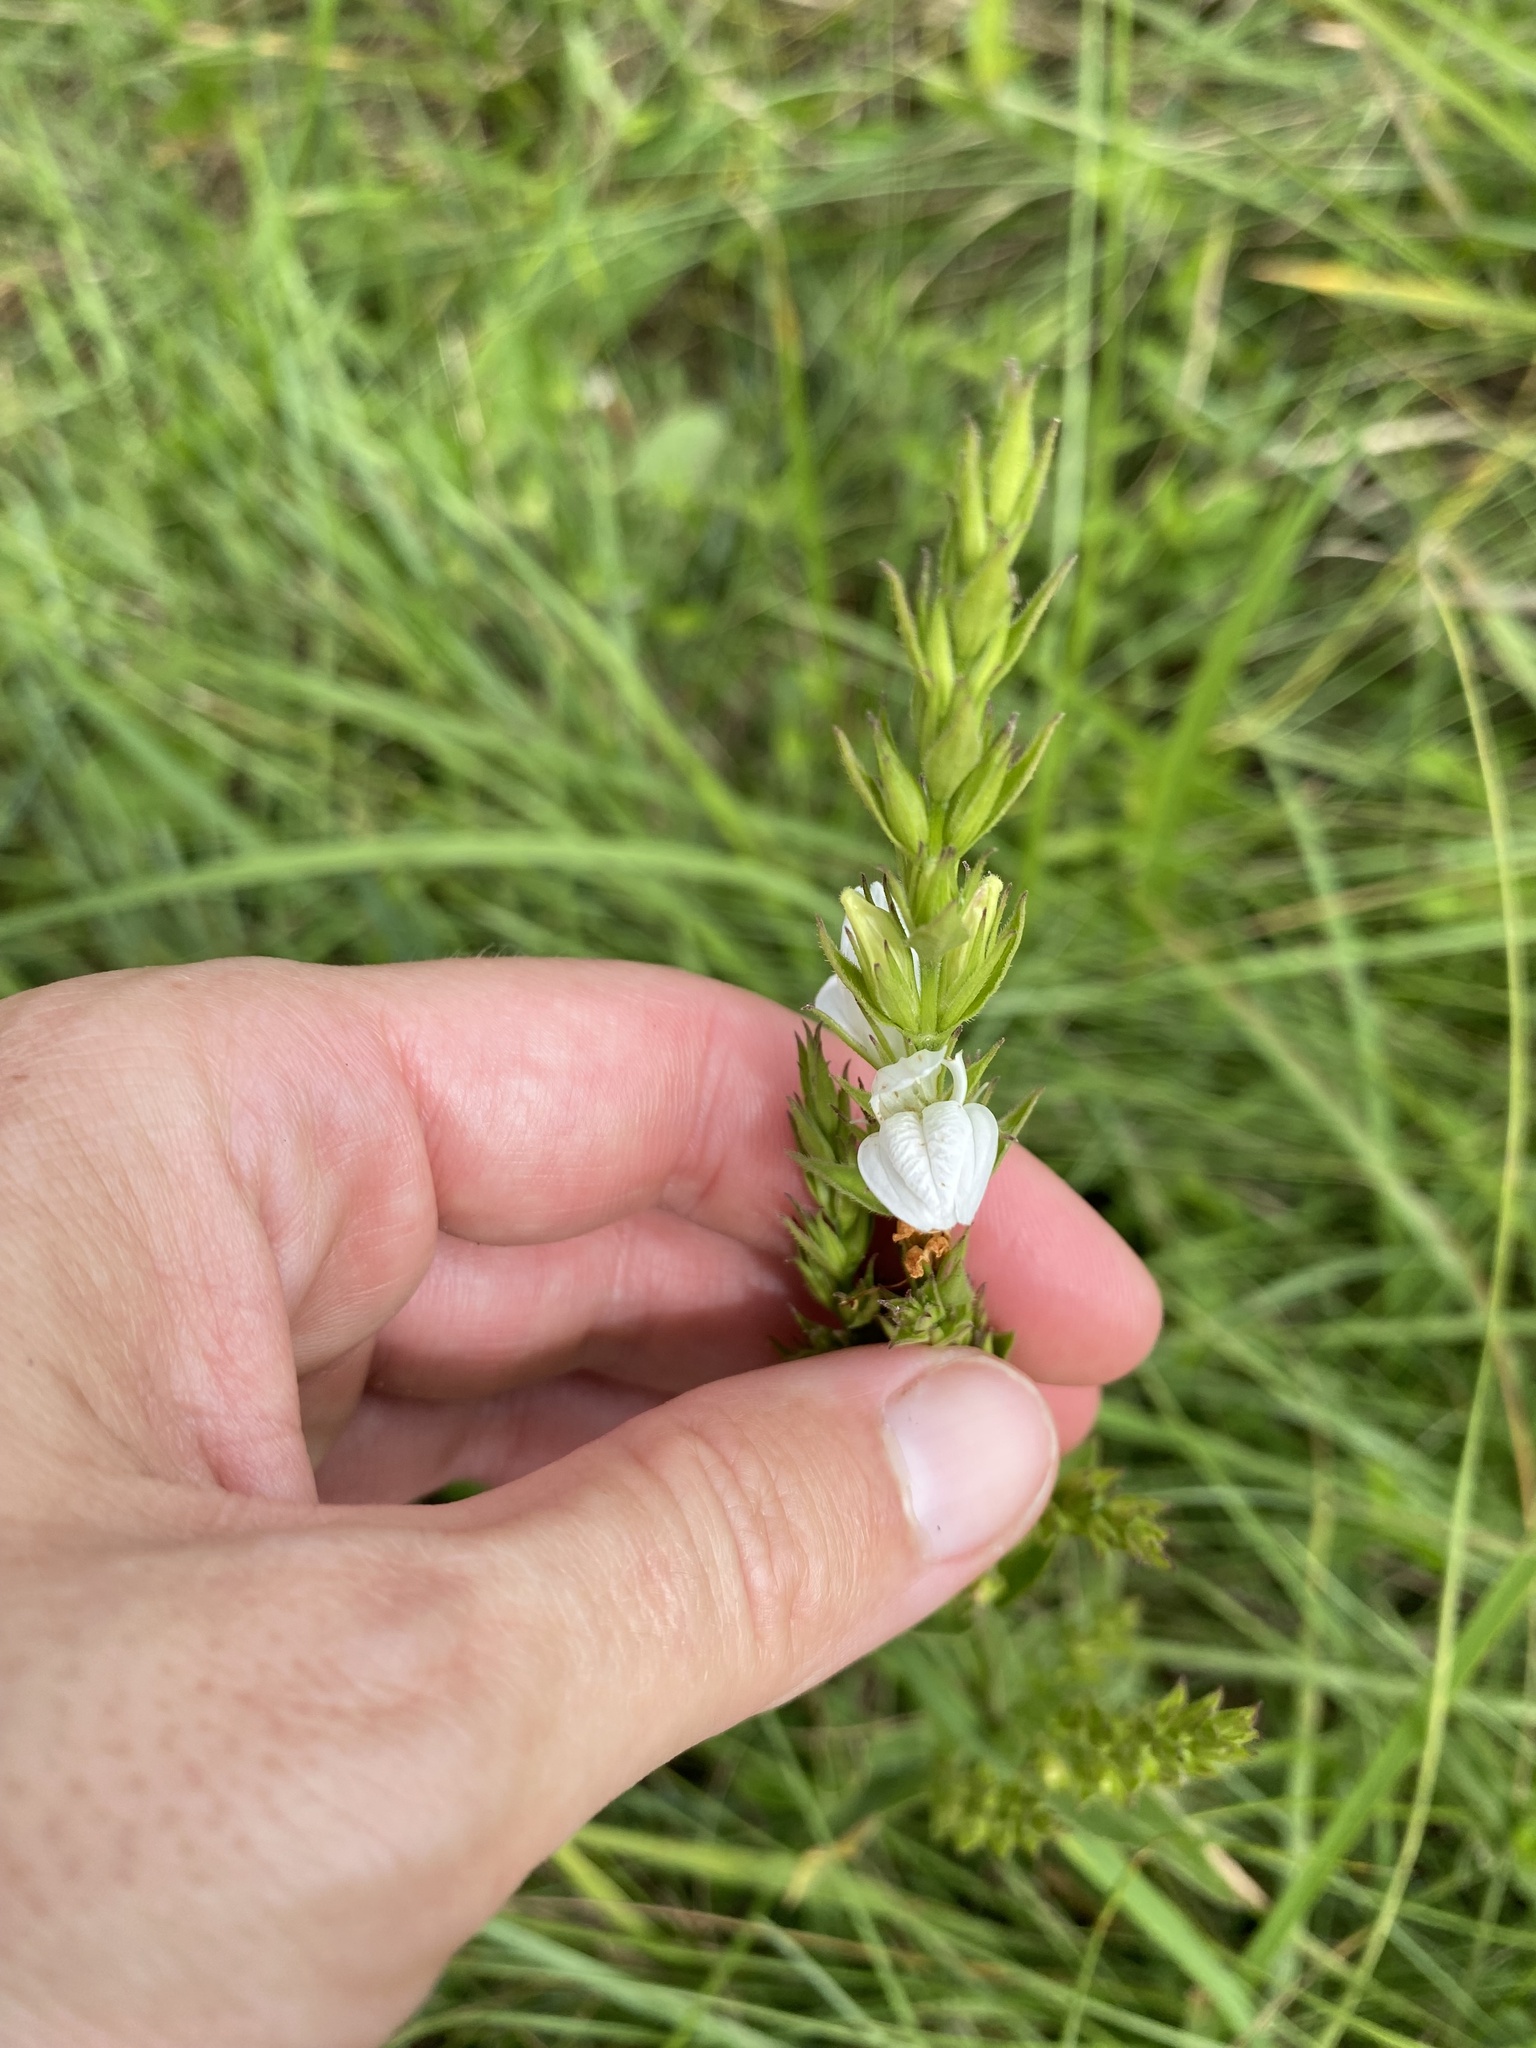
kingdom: Plantae
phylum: Tracheophyta
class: Magnoliopsida
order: Lamiales
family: Acanthaceae
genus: Isoglossa
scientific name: Isoglossa ovata
